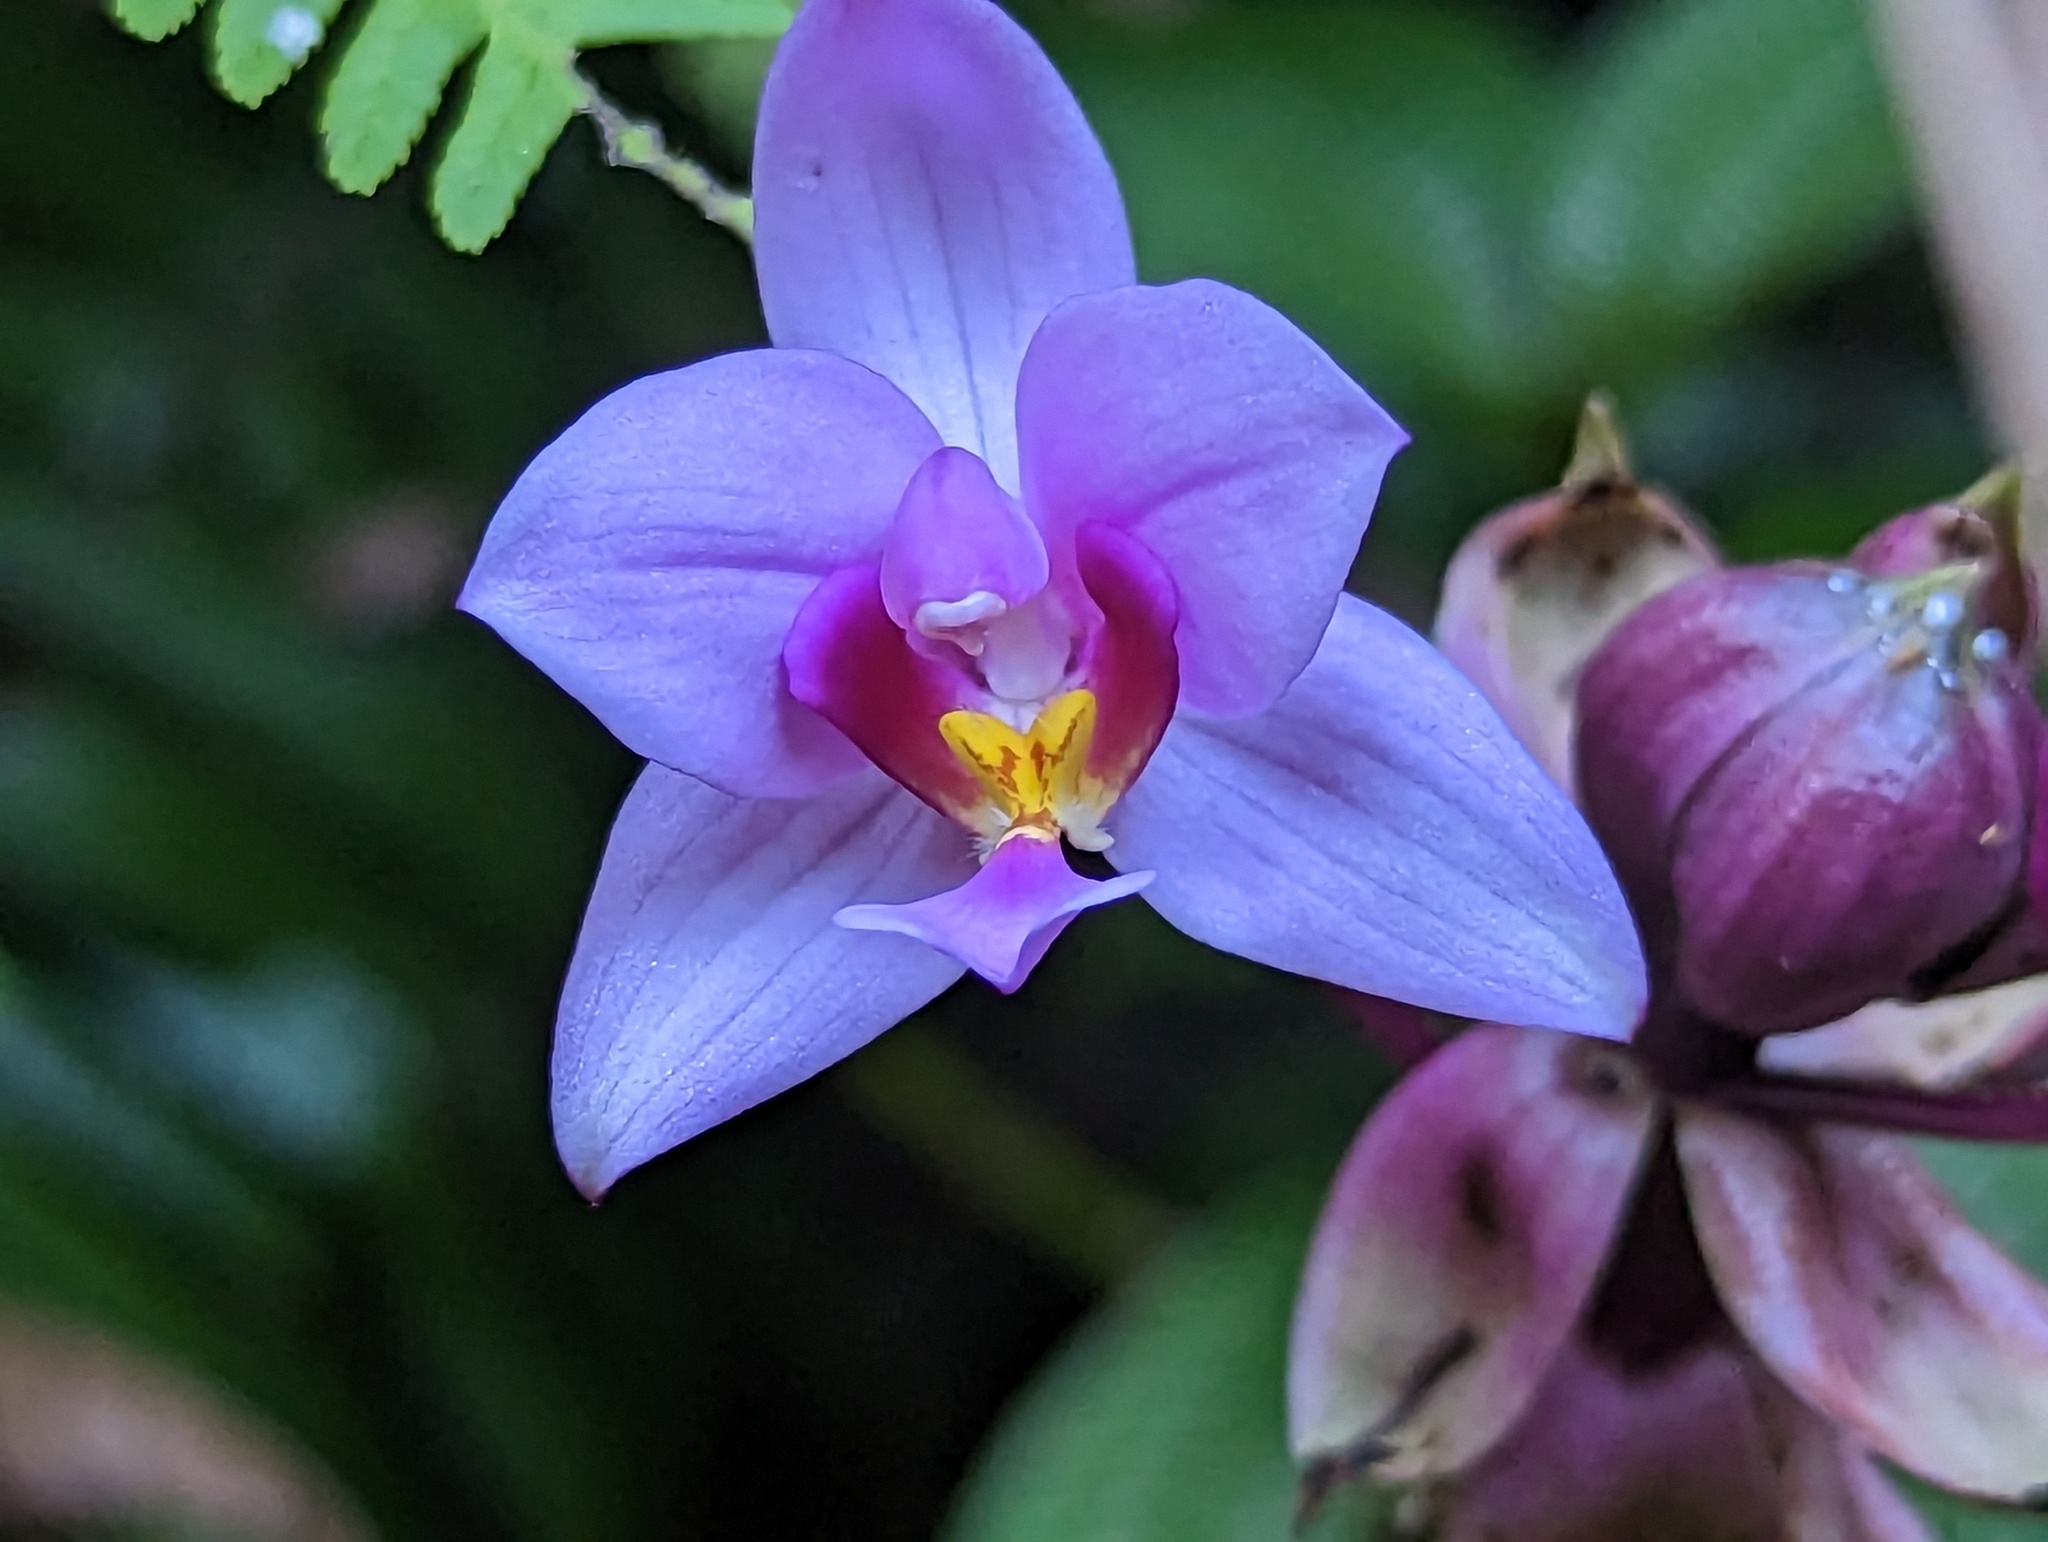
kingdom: Plantae
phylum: Tracheophyta
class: Liliopsida
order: Asparagales
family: Orchidaceae
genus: Spathoglottis
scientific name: Spathoglottis plicata
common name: Philippine ground orchid
